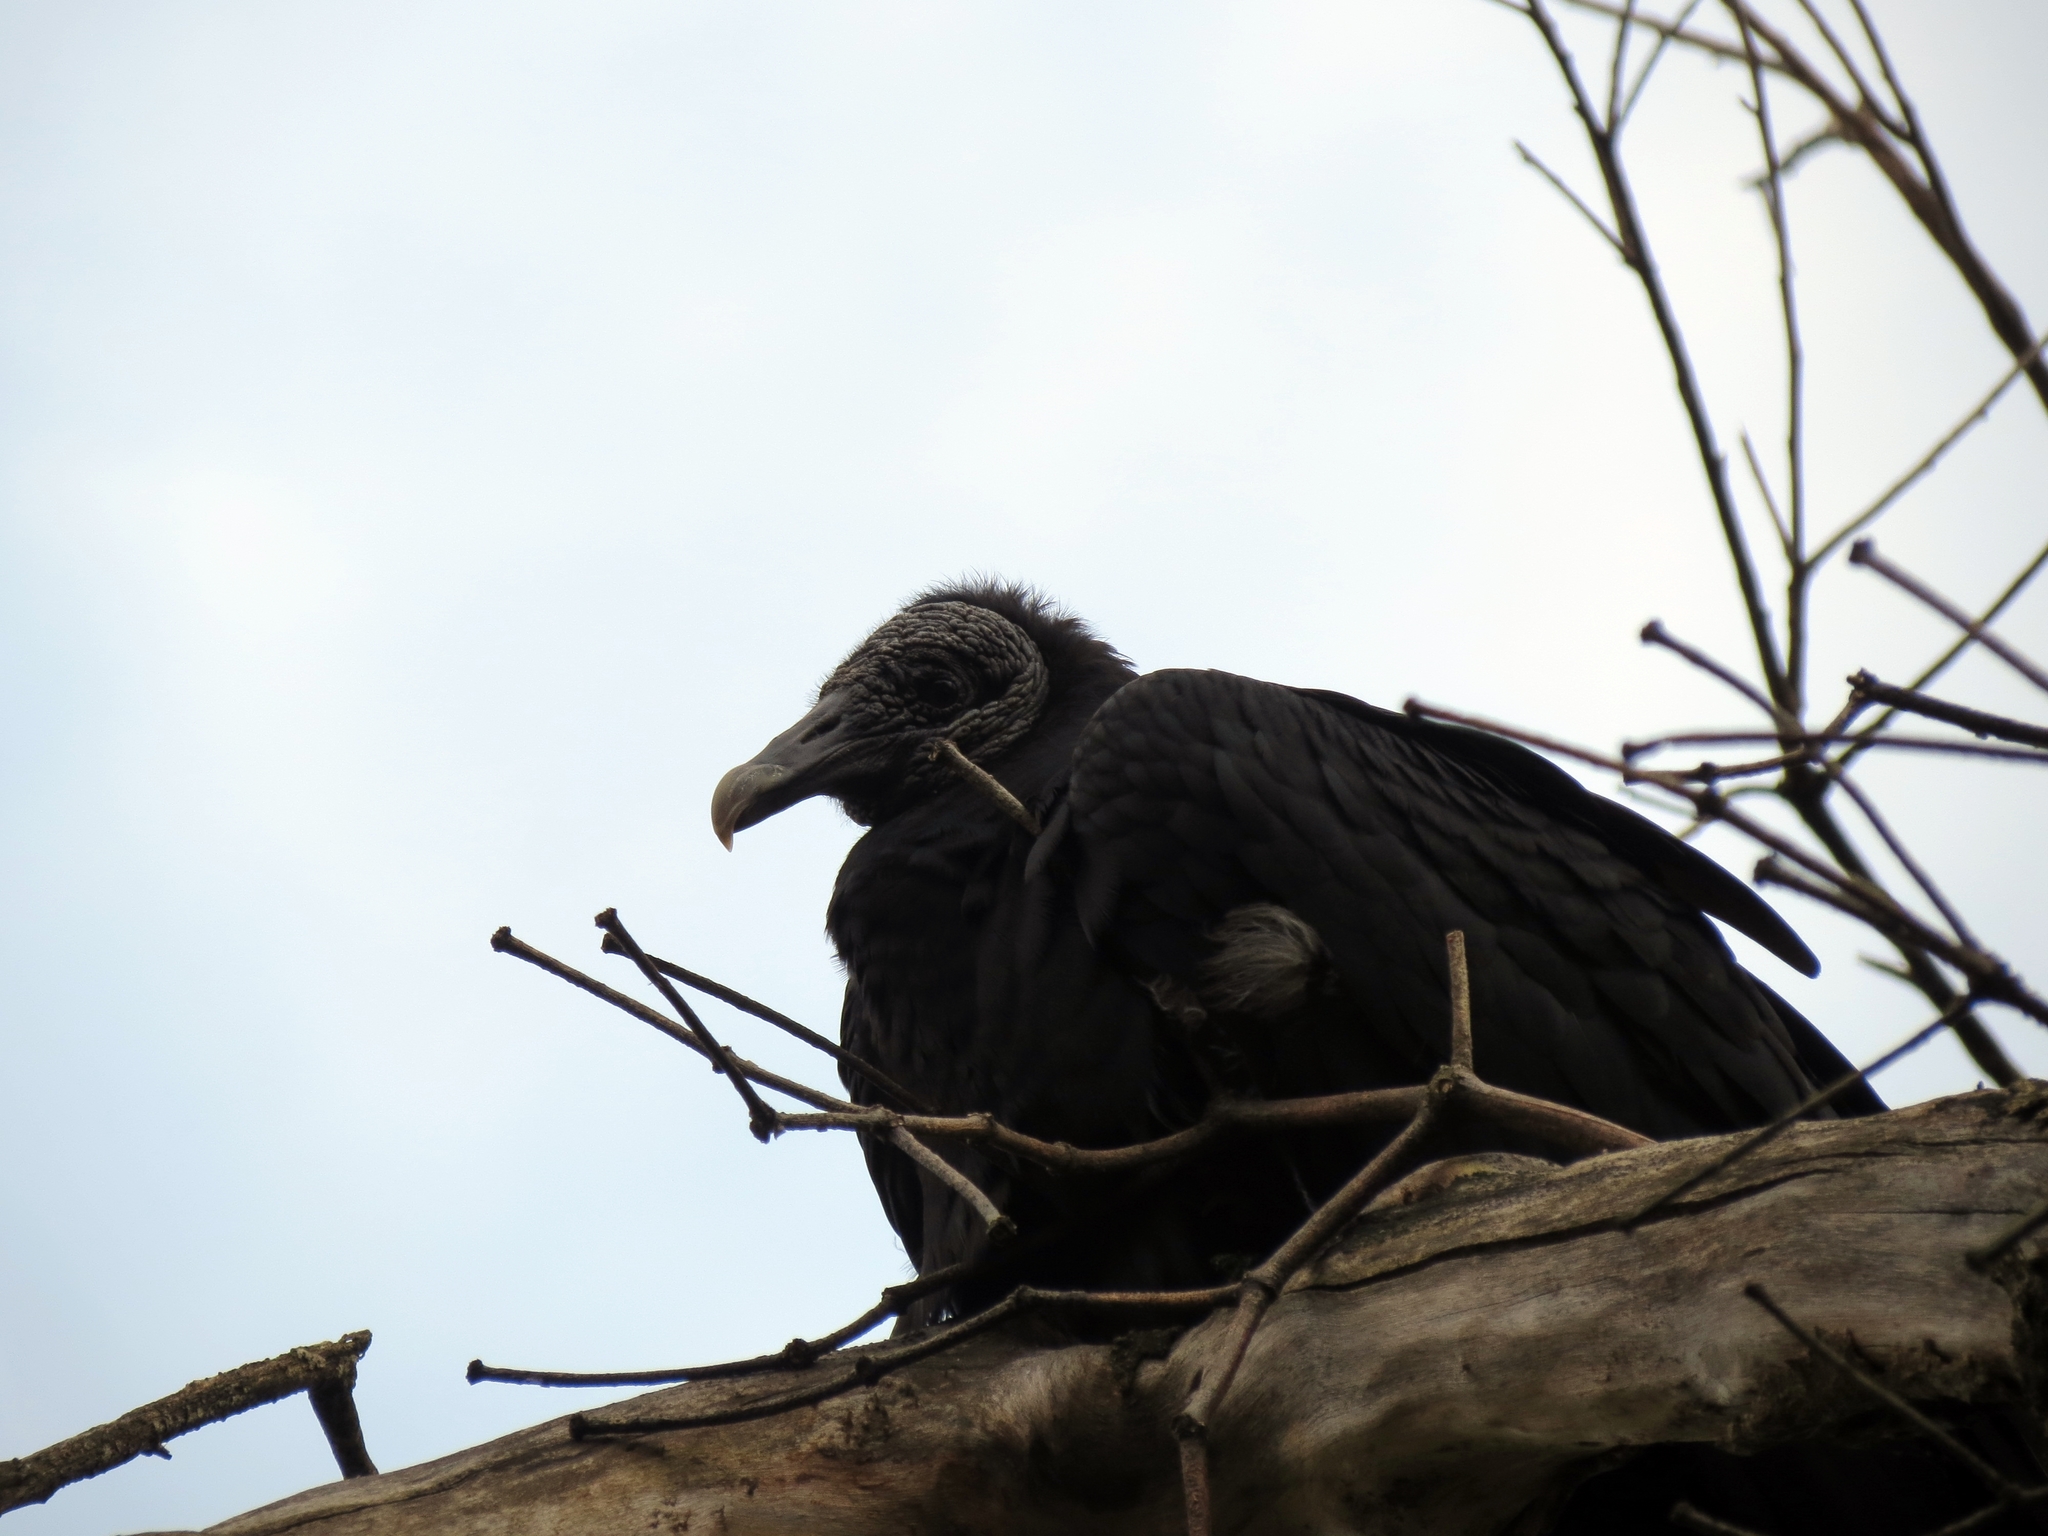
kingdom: Animalia
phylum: Chordata
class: Aves
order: Accipitriformes
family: Cathartidae
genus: Coragyps
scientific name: Coragyps atratus
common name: Black vulture
